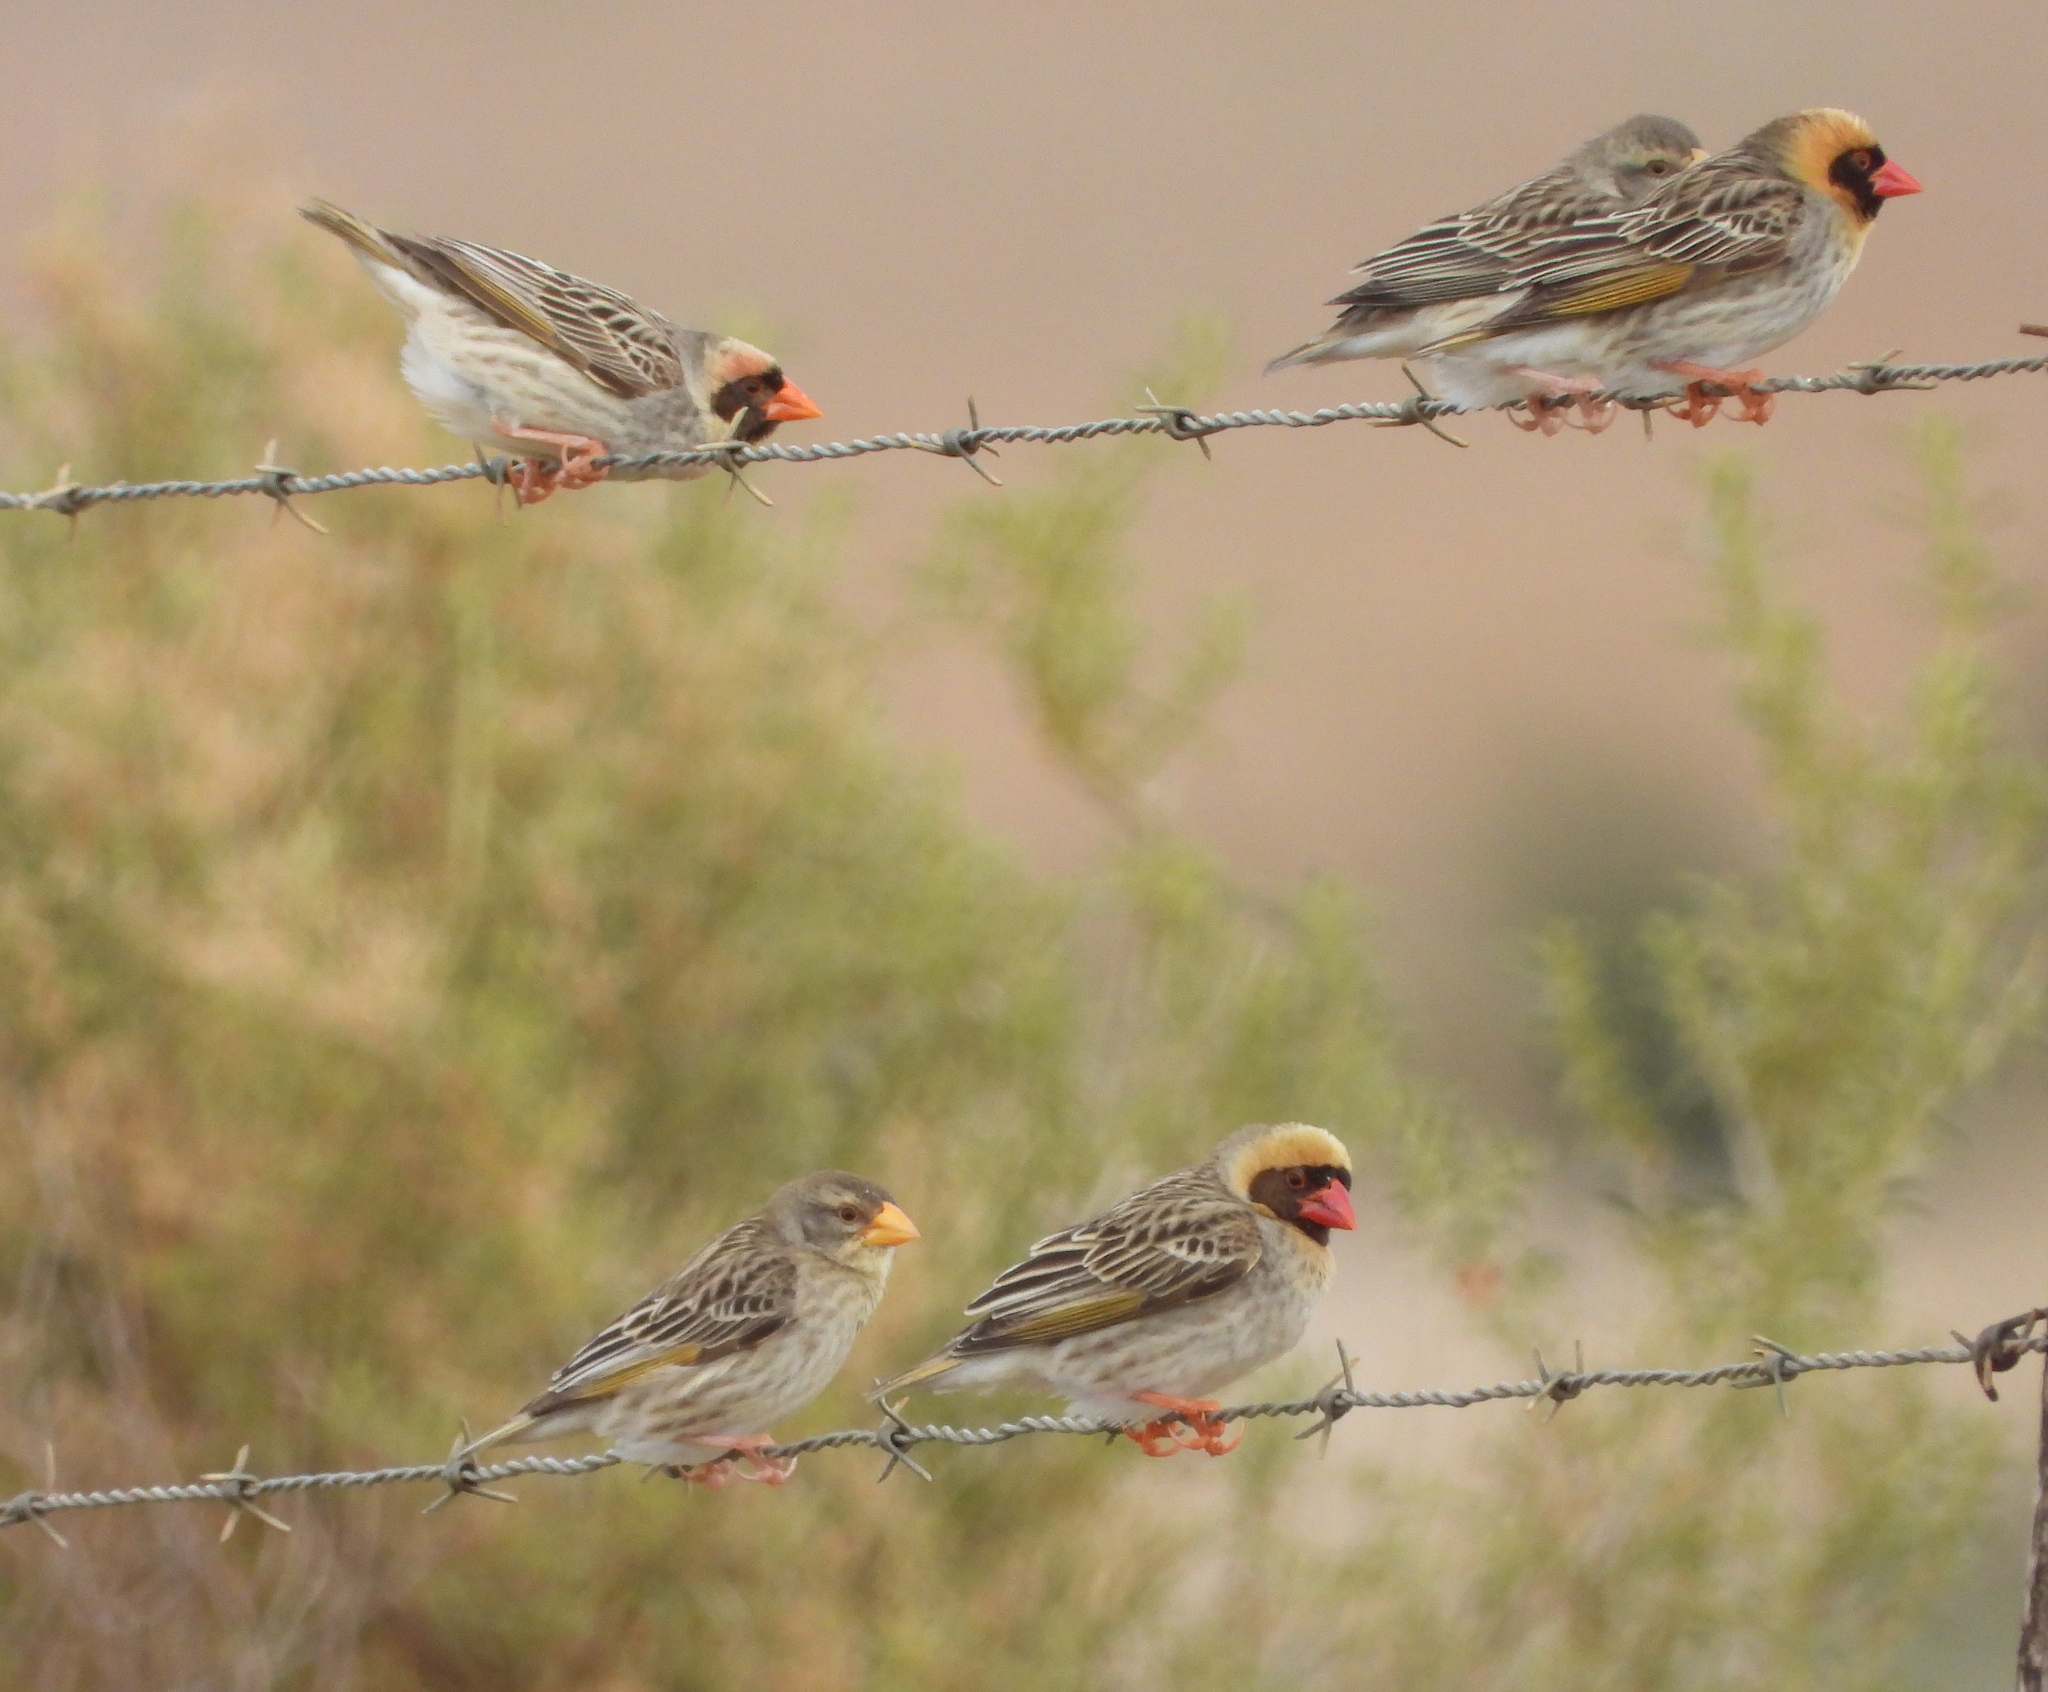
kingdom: Animalia
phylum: Chordata
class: Aves
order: Passeriformes
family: Ploceidae
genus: Quelea
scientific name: Quelea quelea
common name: Red-billed quelea
